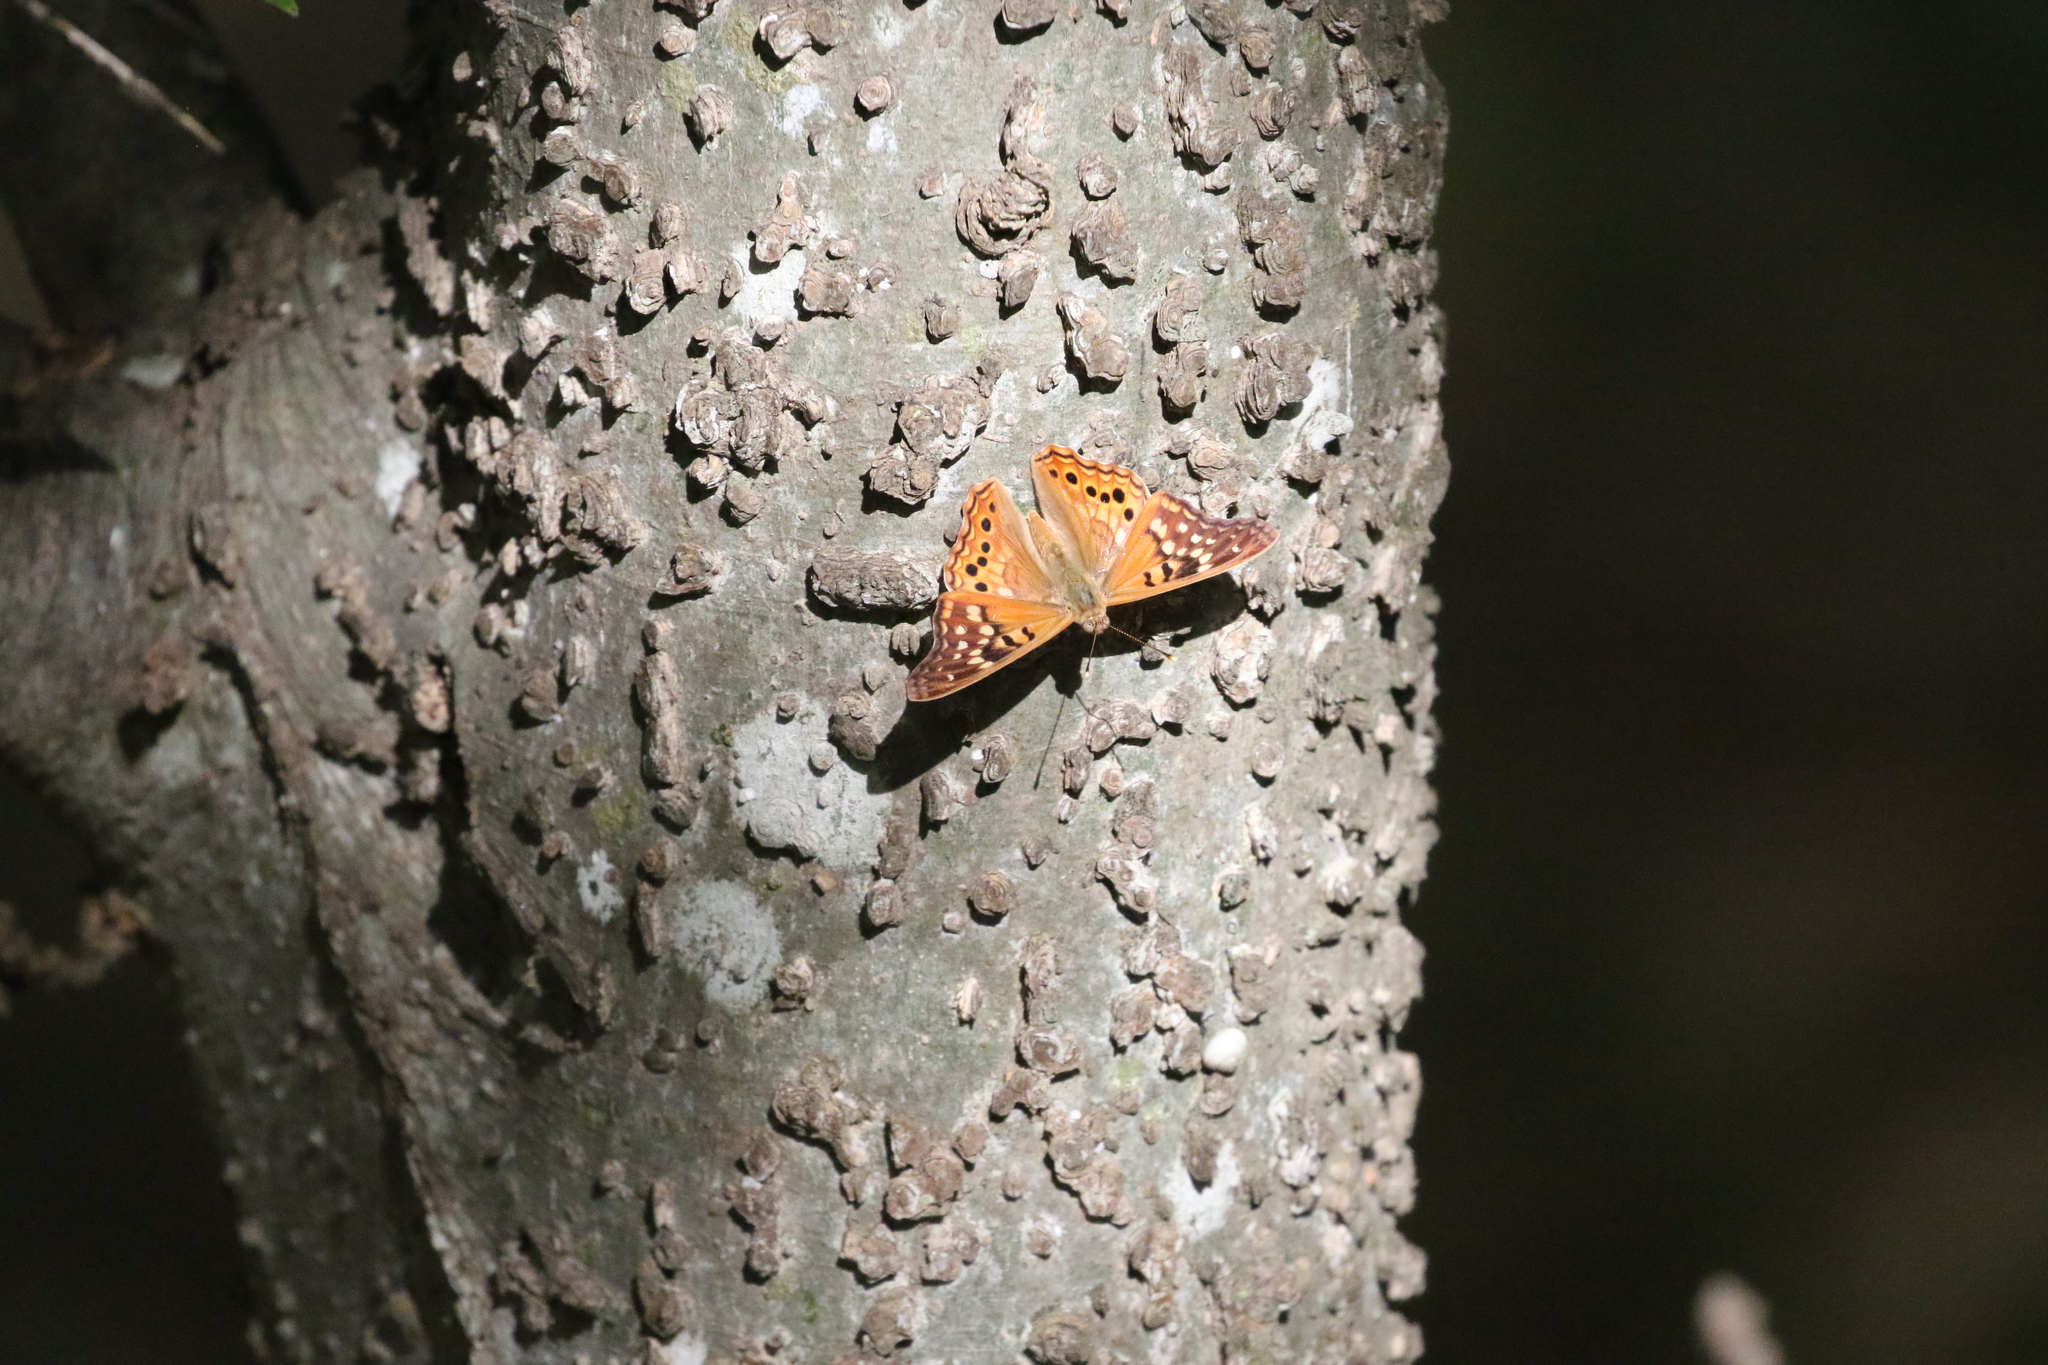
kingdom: Animalia
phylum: Arthropoda
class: Insecta
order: Lepidoptera
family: Nymphalidae
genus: Asterocampa
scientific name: Asterocampa clyton
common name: Tawny emperor
